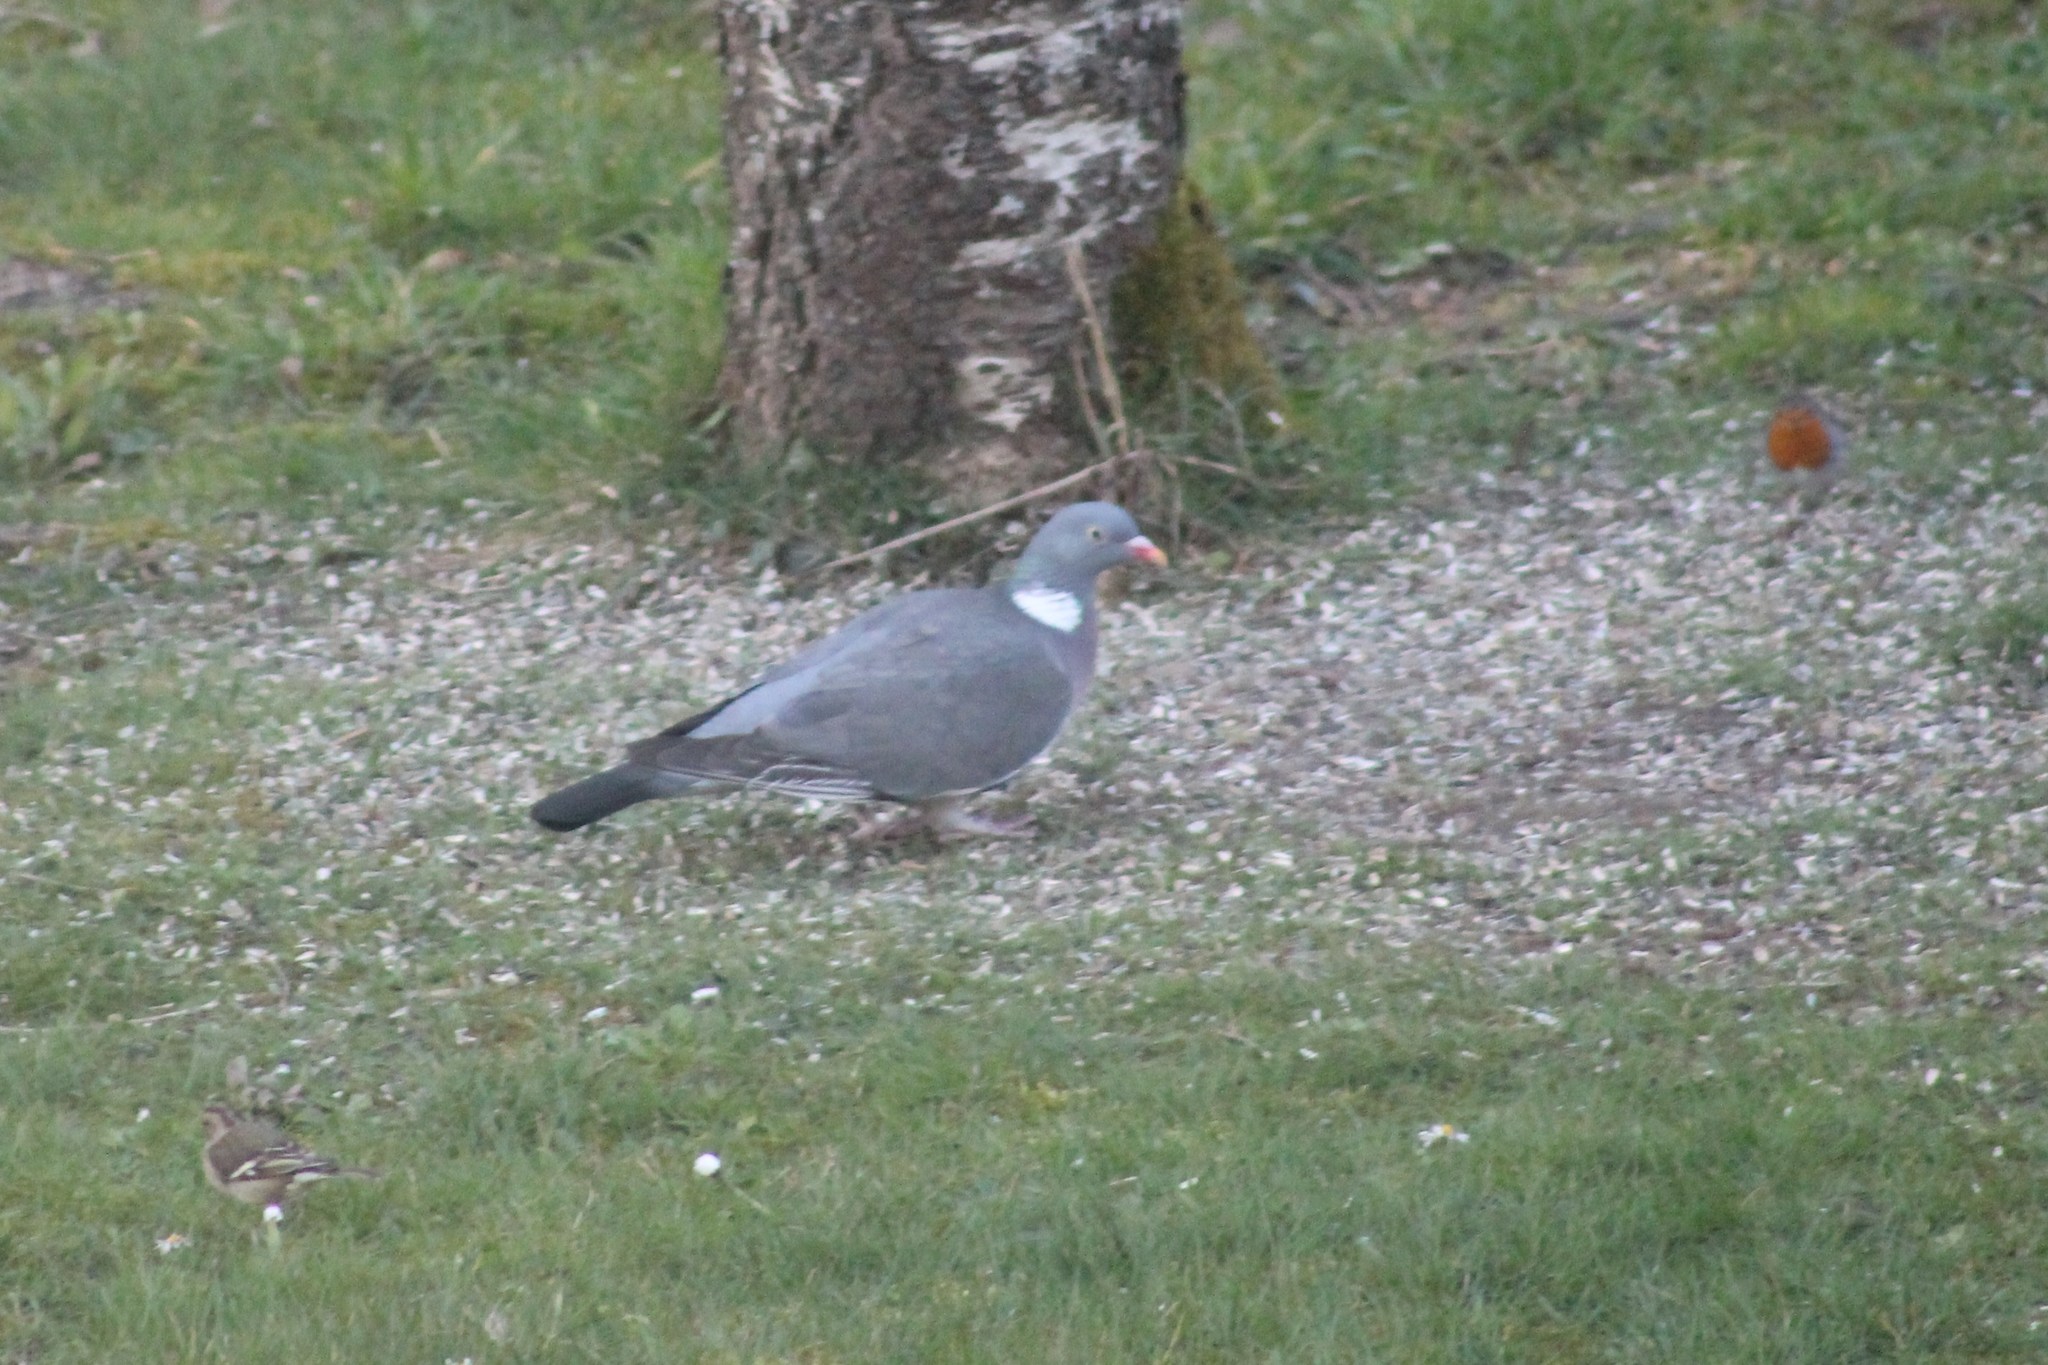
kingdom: Animalia
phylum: Chordata
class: Aves
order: Columbiformes
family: Columbidae
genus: Columba
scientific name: Columba palumbus
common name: Common wood pigeon
